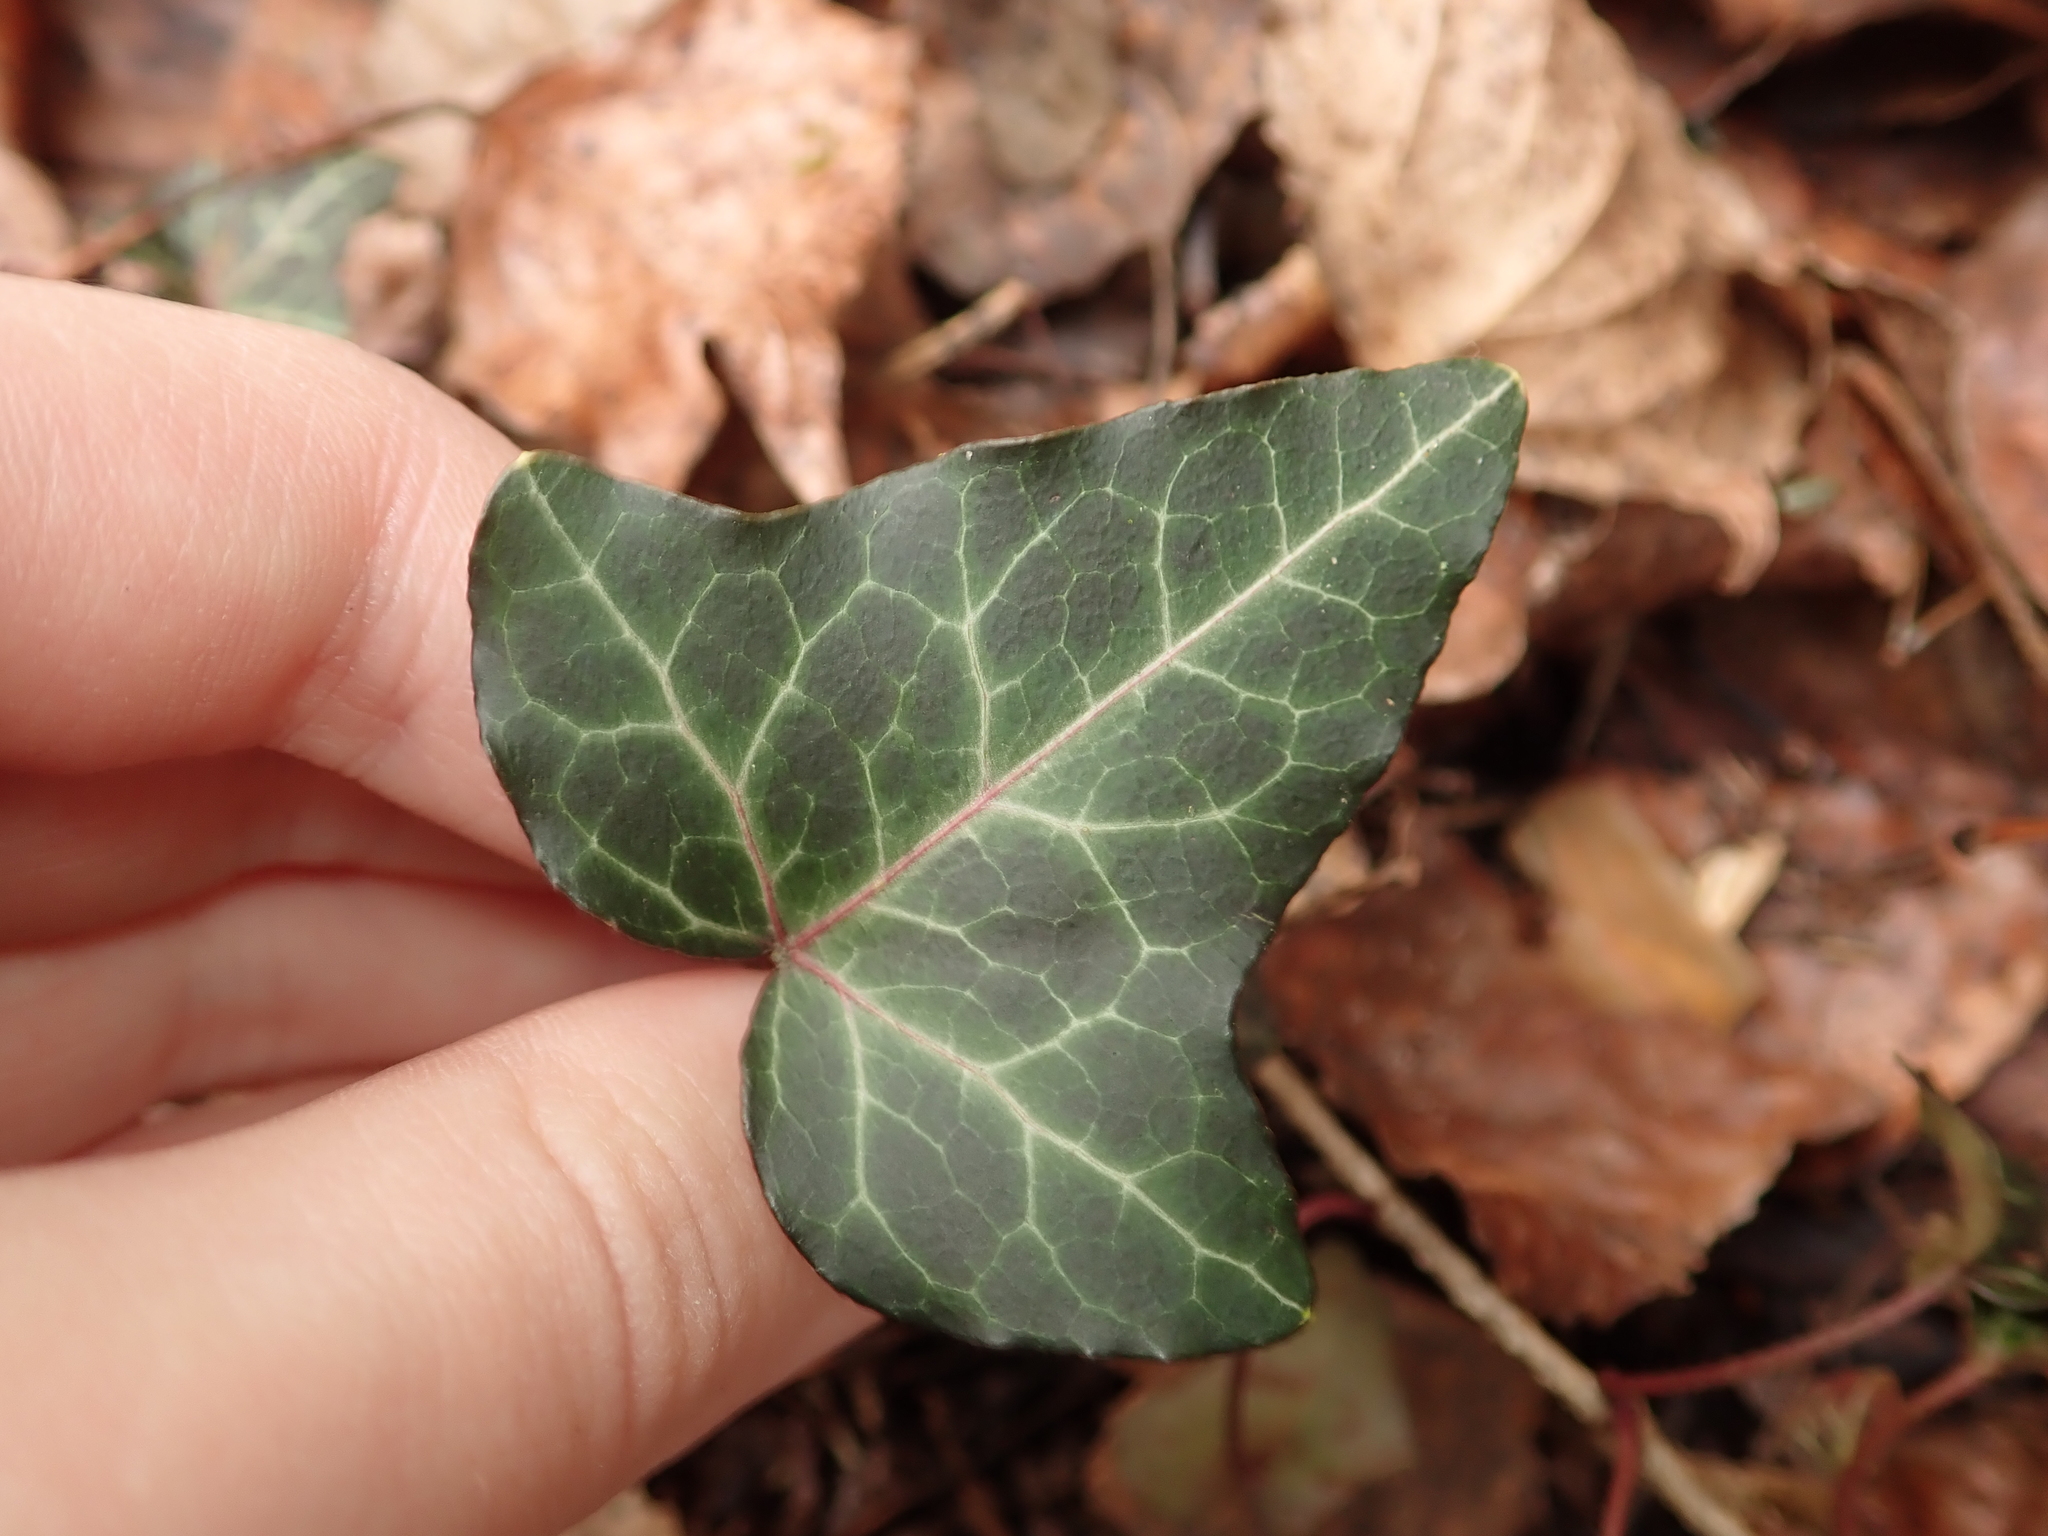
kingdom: Plantae
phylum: Tracheophyta
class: Magnoliopsida
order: Apiales
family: Araliaceae
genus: Hedera
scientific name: Hedera helix
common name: Ivy
